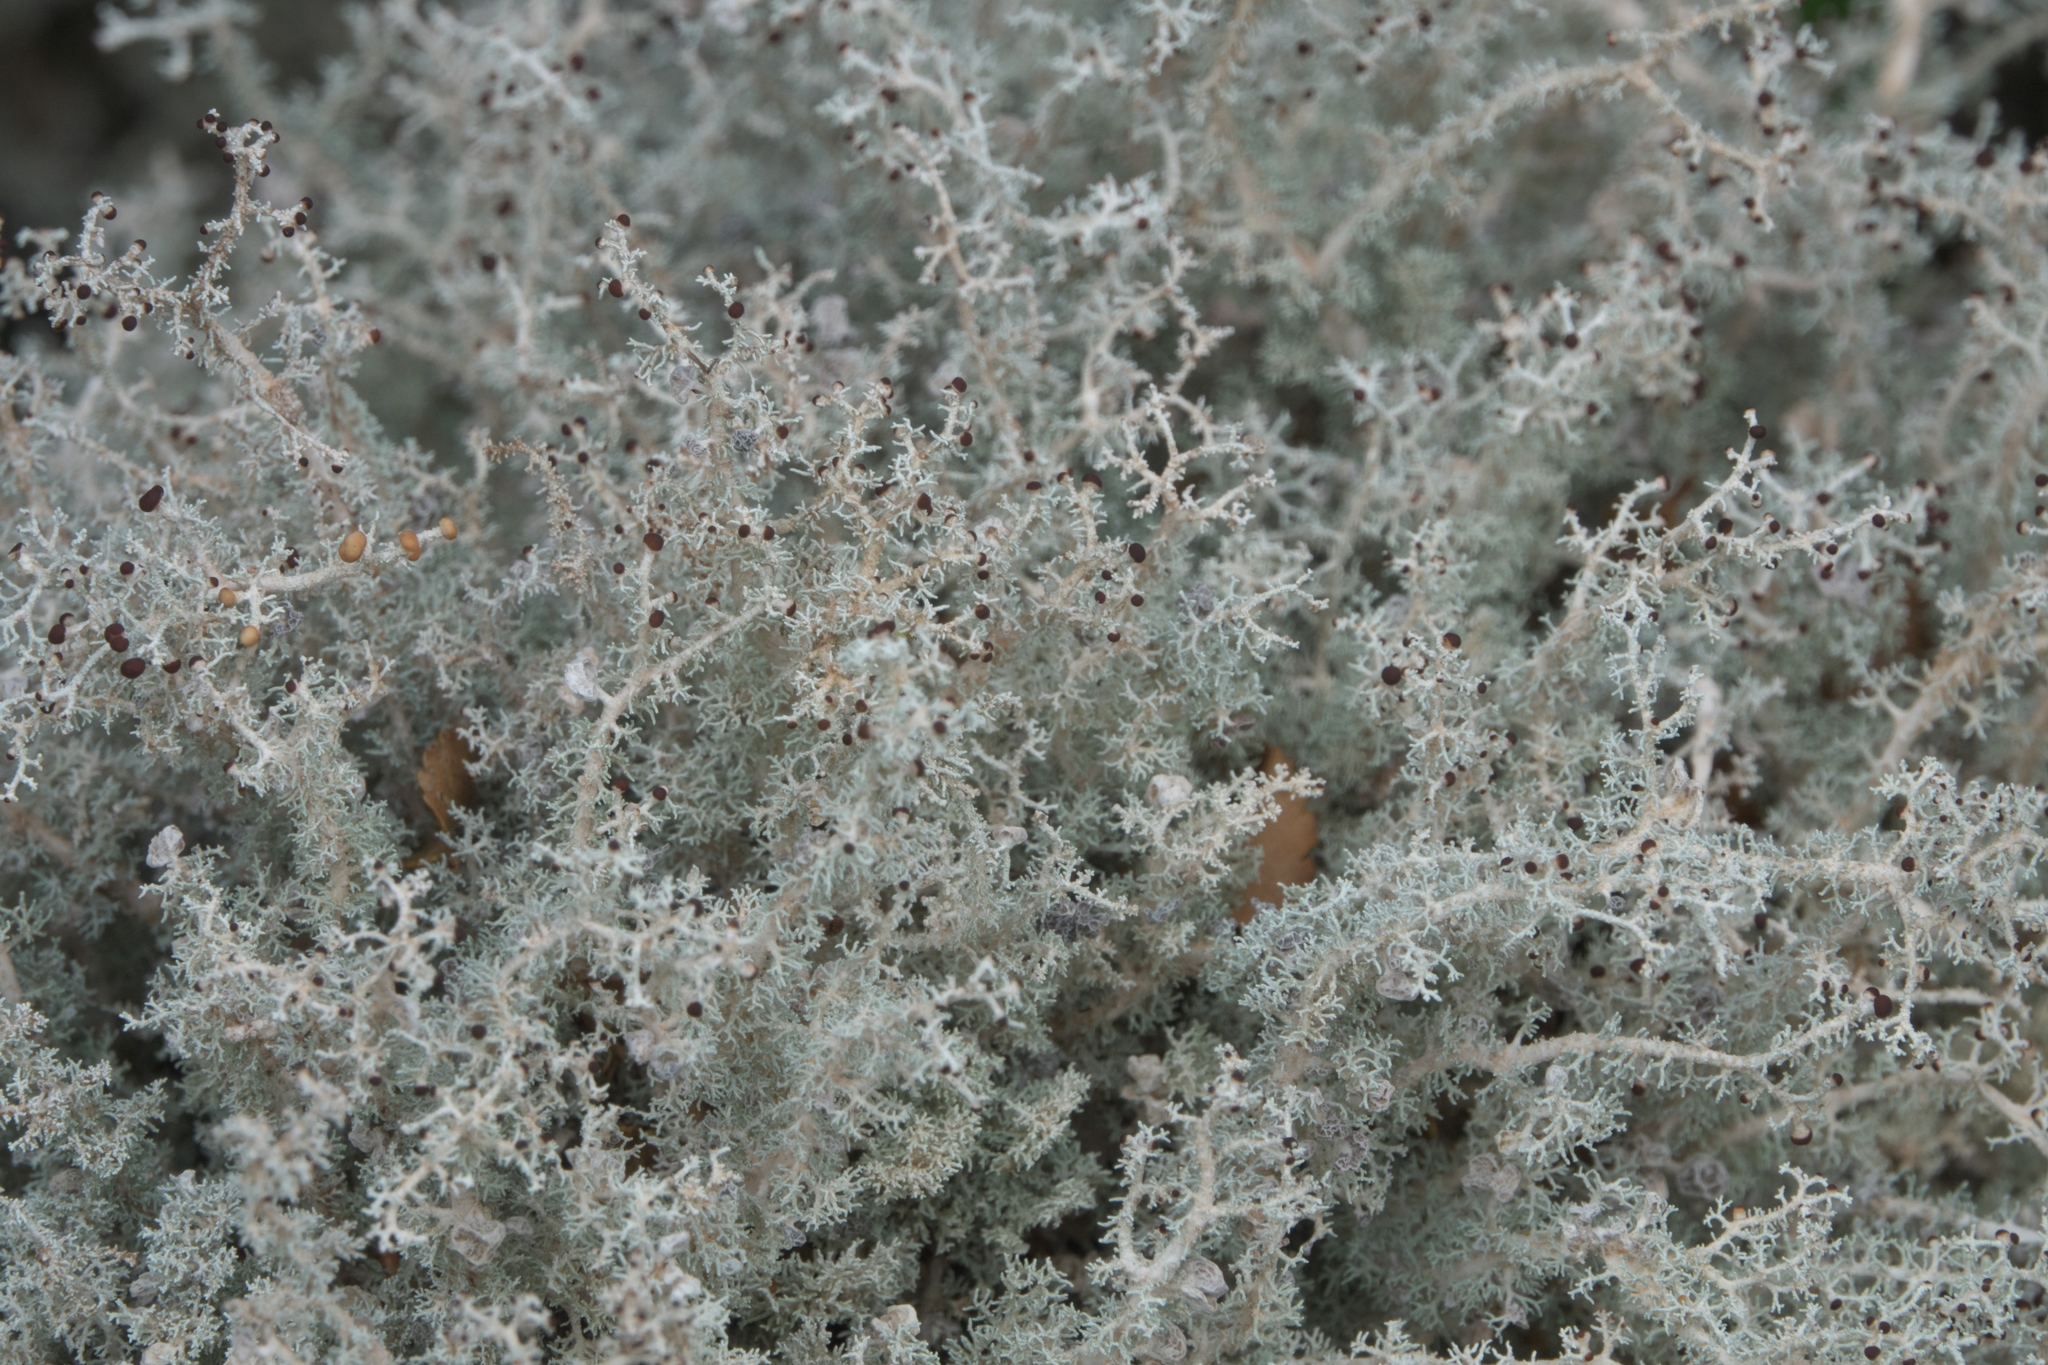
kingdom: Fungi
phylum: Ascomycota
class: Lecanoromycetes
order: Lecanorales
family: Stereocaulaceae
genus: Stereocaulon
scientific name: Stereocaulon ramulosum
